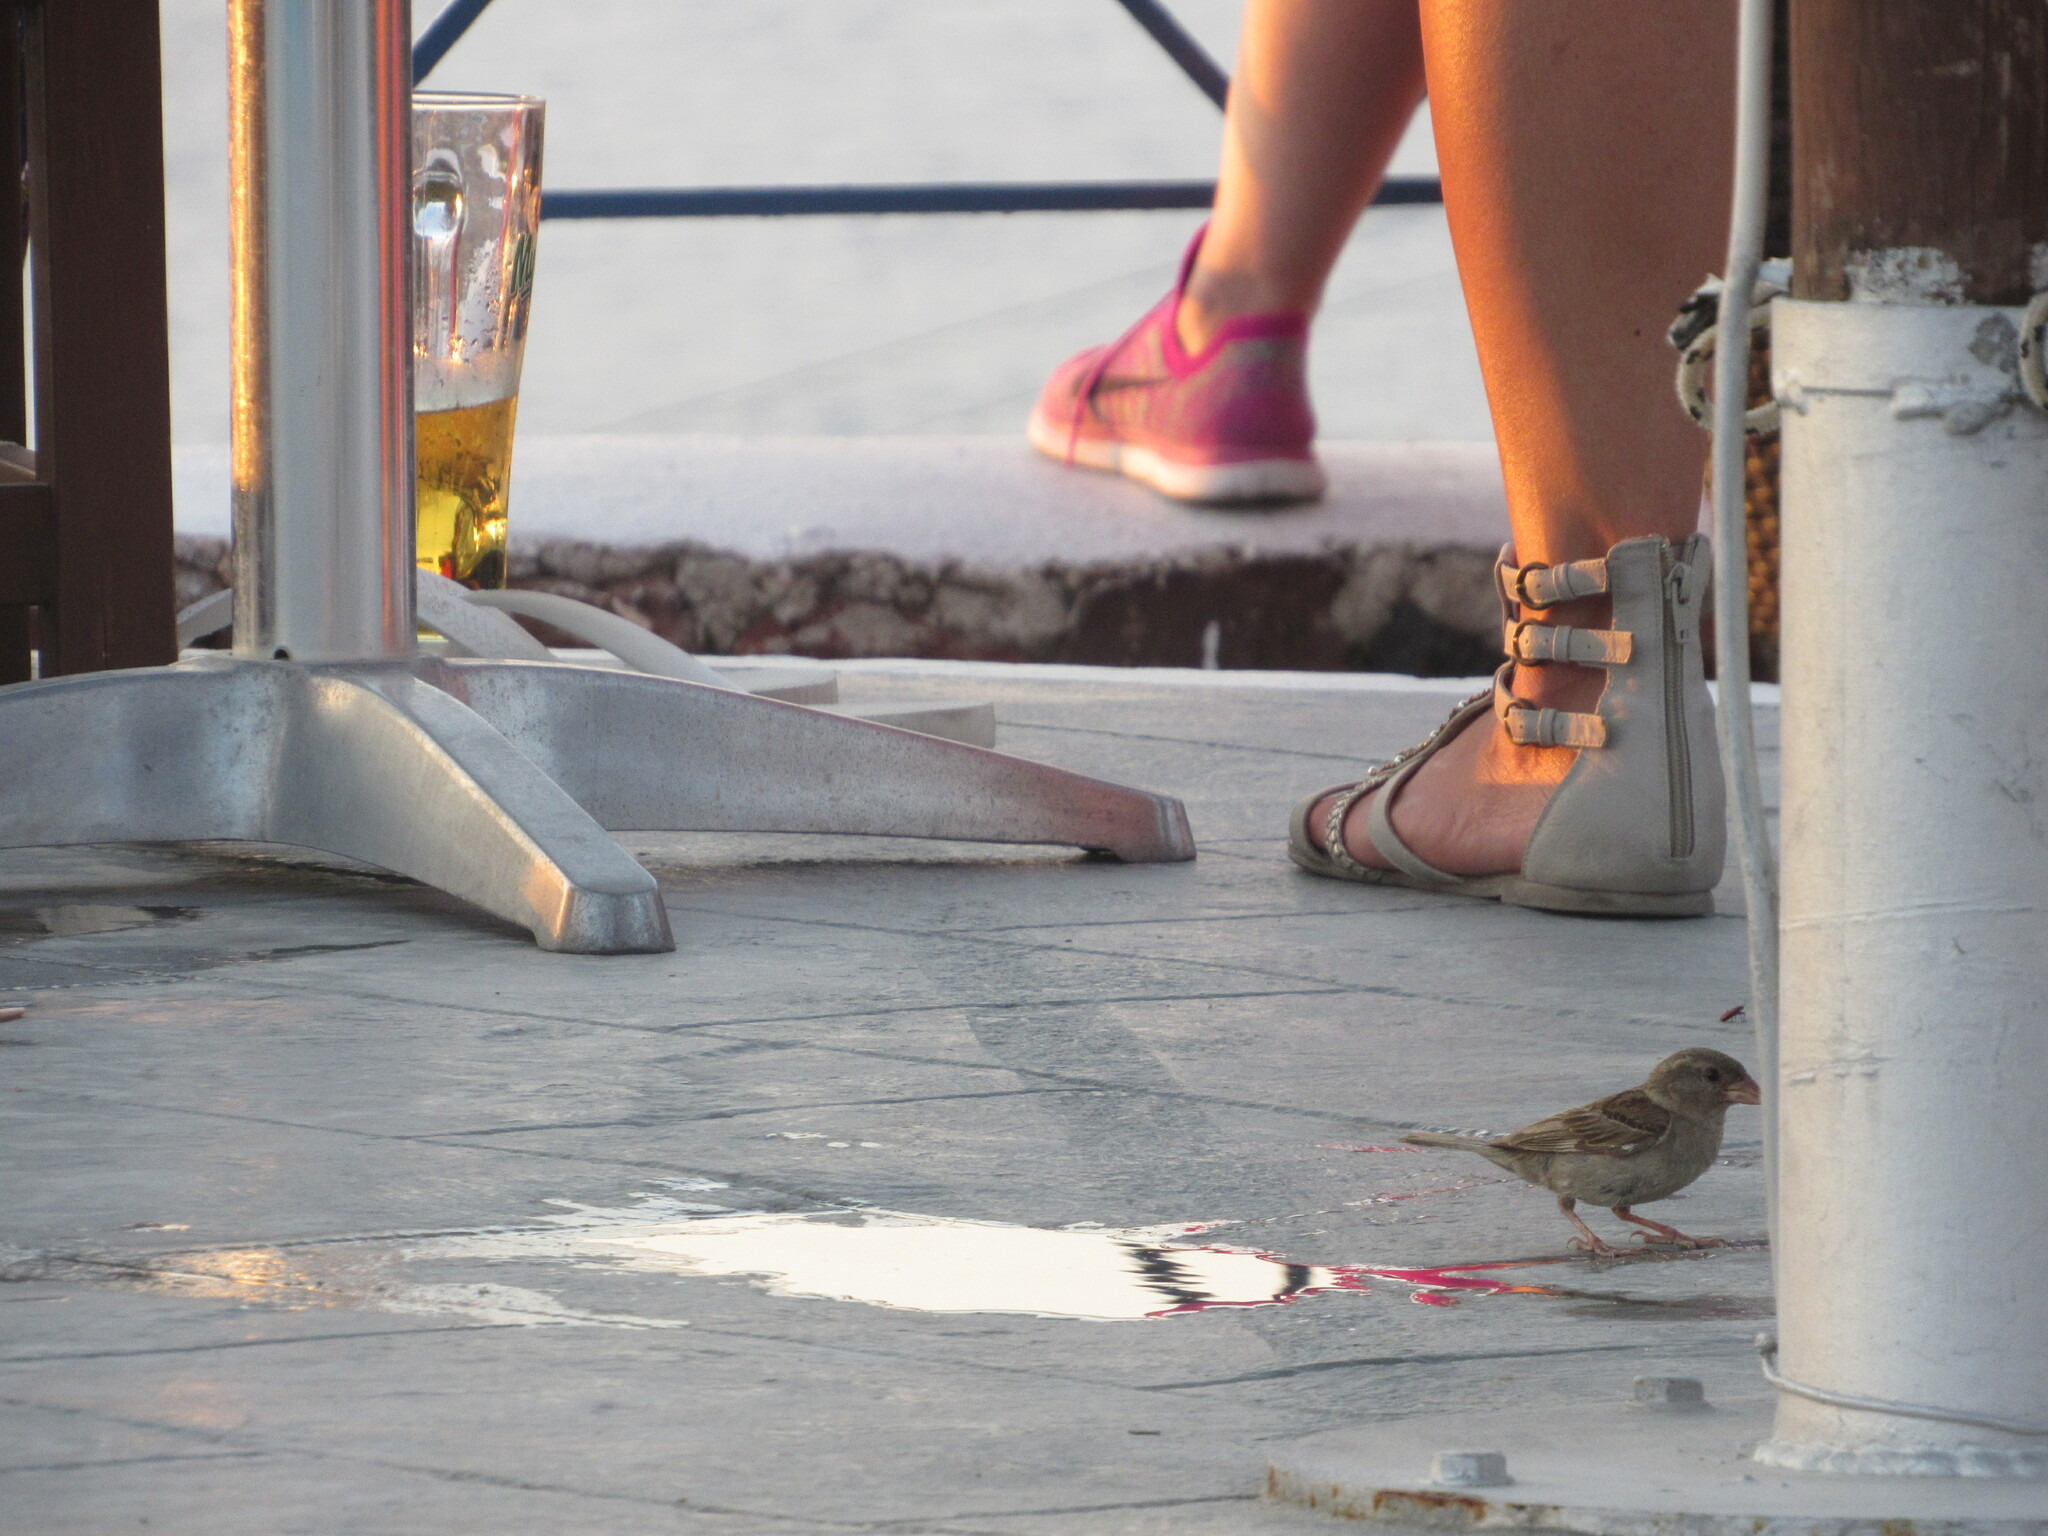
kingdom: Animalia
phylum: Chordata
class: Aves
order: Passeriformes
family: Passeridae
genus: Passer
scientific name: Passer domesticus
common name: House sparrow
